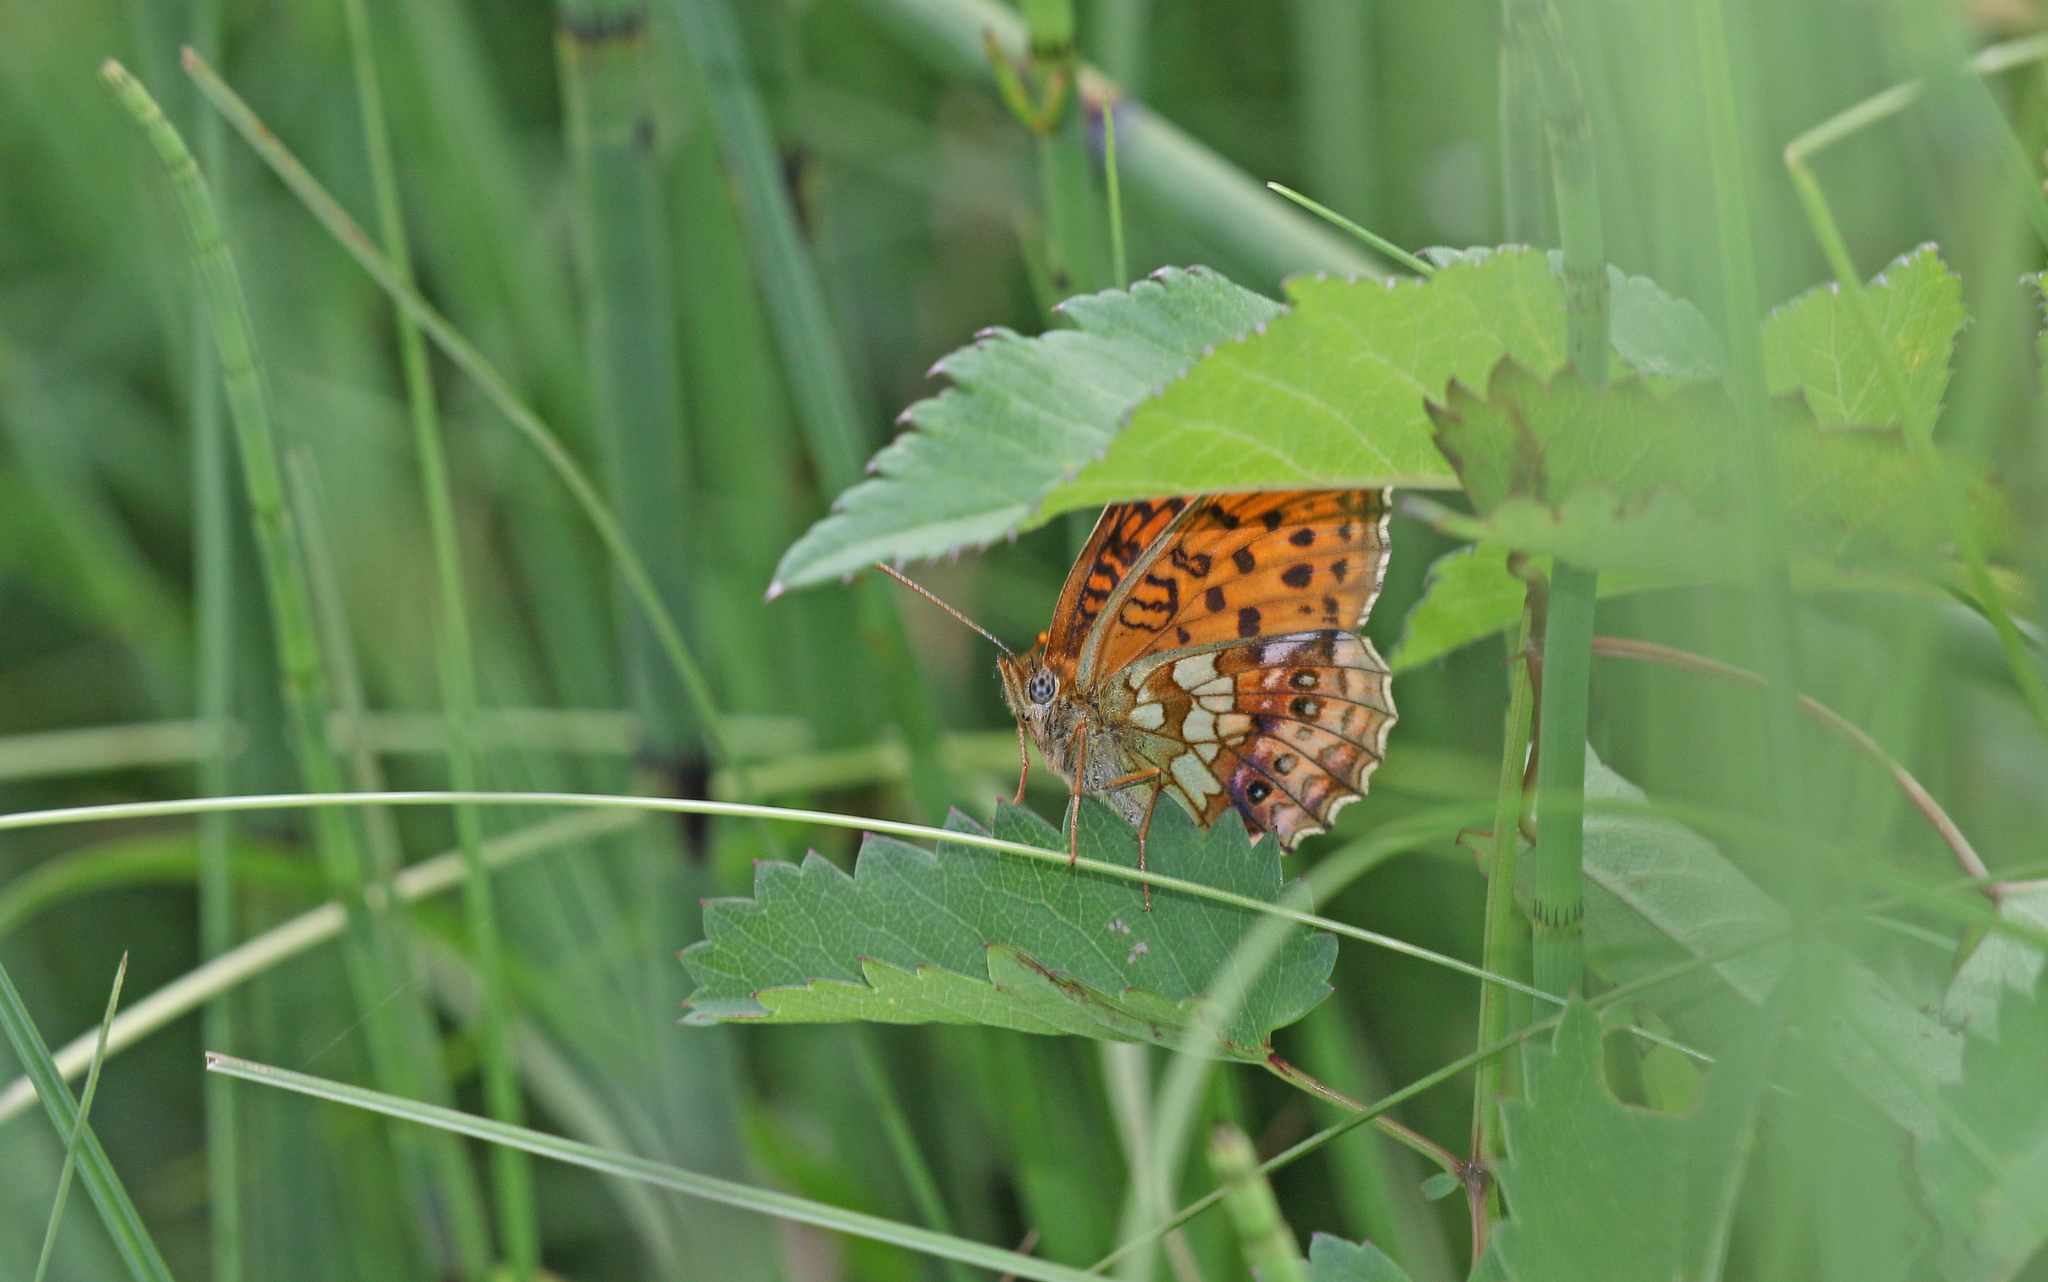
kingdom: Animalia
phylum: Arthropoda
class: Insecta
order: Lepidoptera
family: Nymphalidae
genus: Brenthis
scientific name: Brenthis ino
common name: Lesser marbled fritillary
